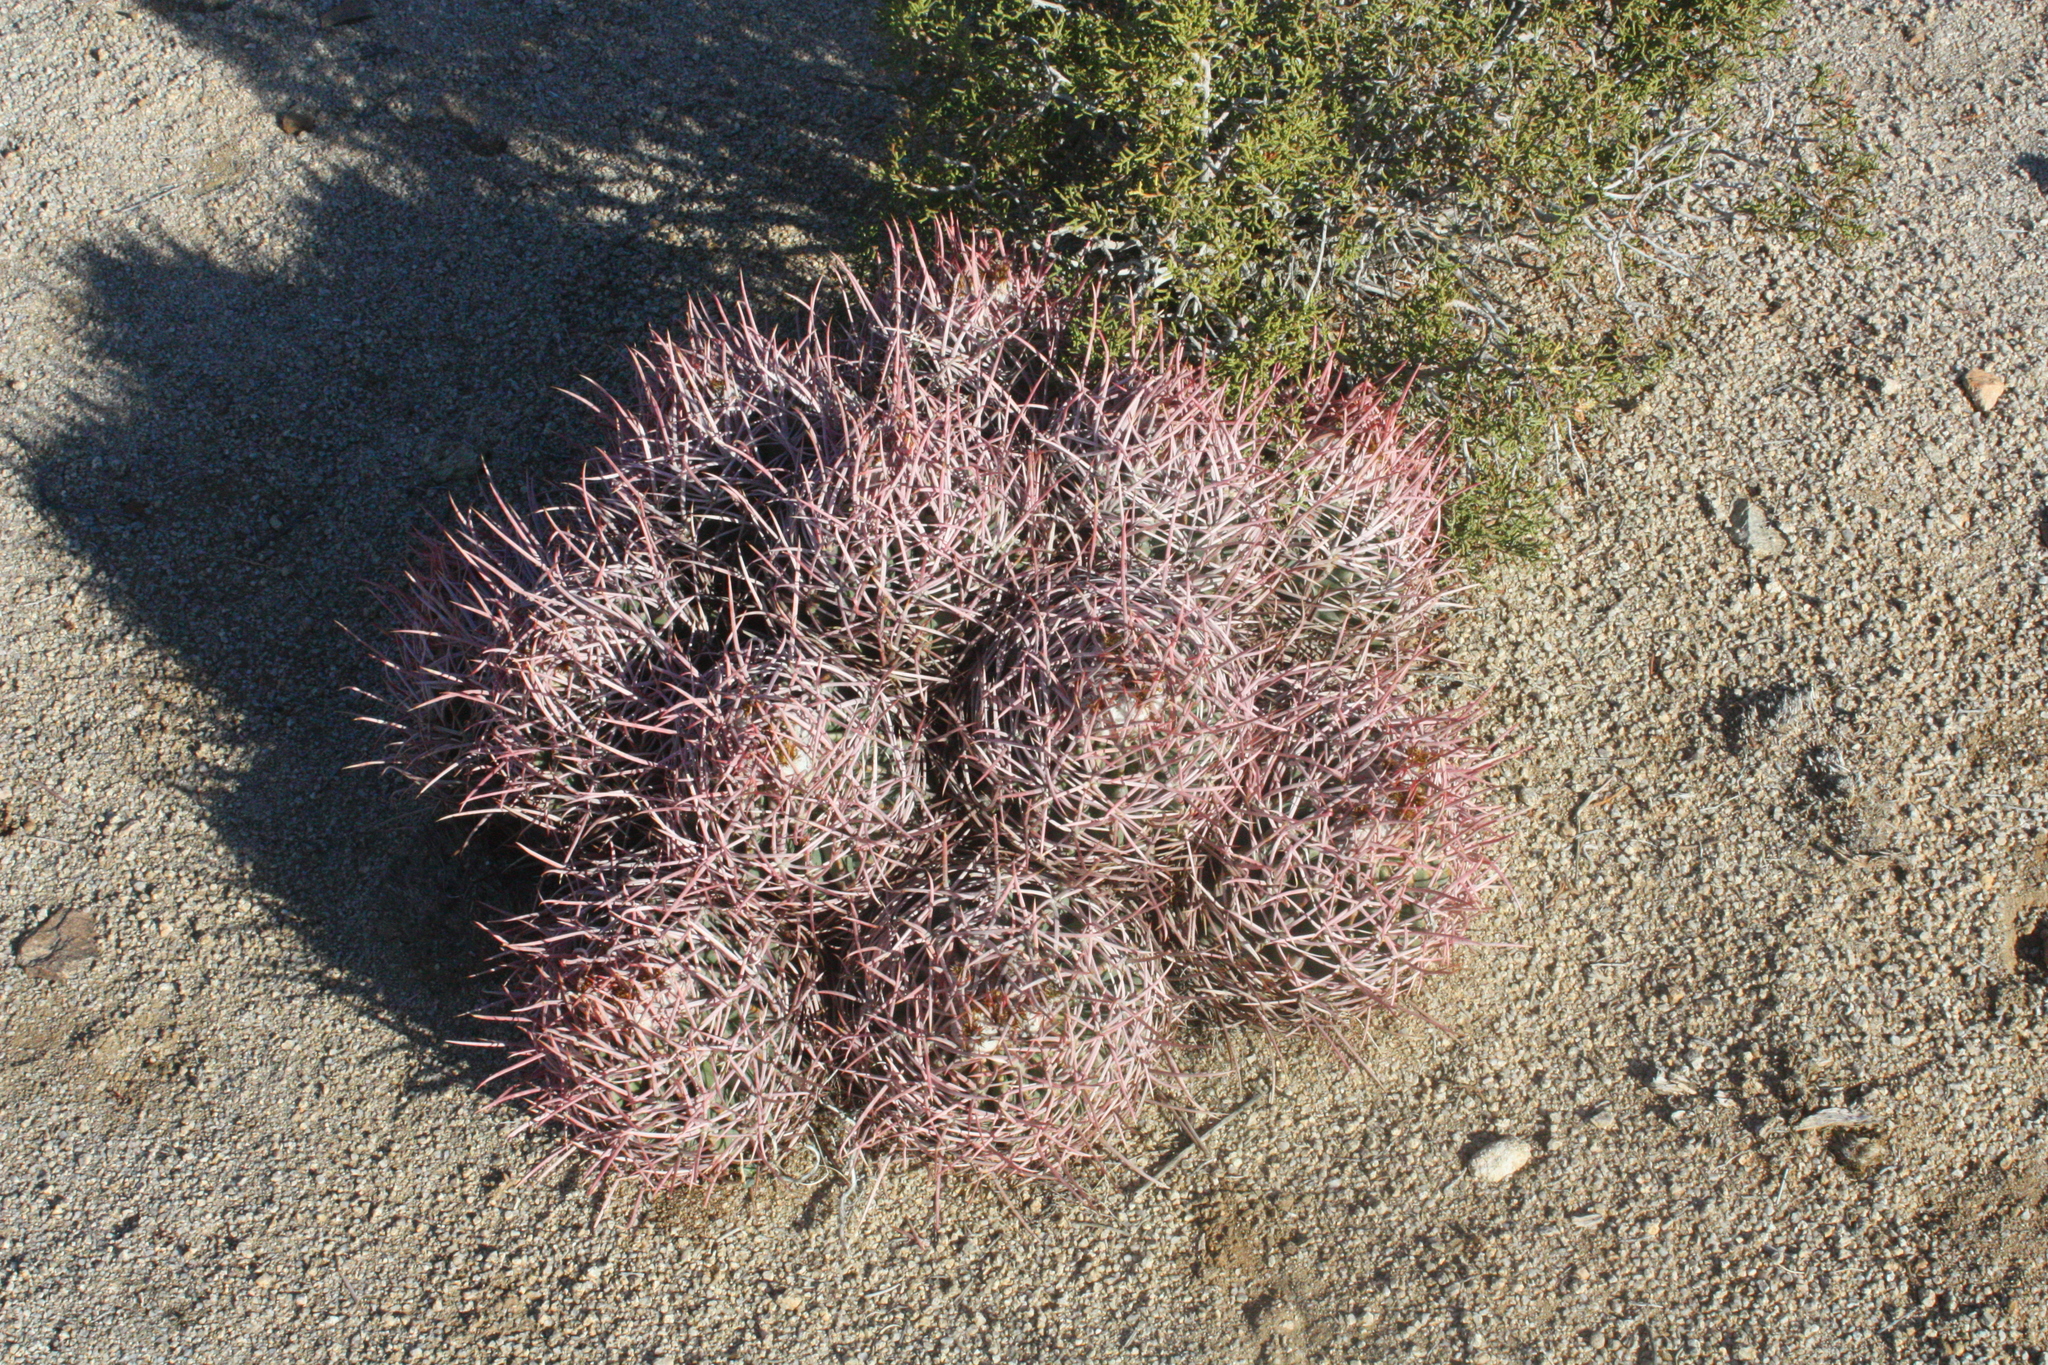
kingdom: Plantae
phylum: Tracheophyta
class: Magnoliopsida
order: Caryophyllales
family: Cactaceae
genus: Echinocactus
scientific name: Echinocactus polycephalus
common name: Cottontop cactus
